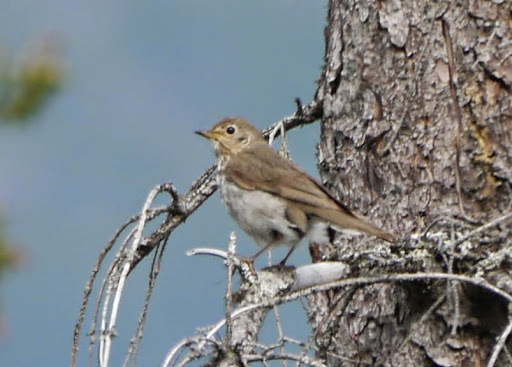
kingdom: Animalia
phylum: Chordata
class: Aves
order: Passeriformes
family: Turdidae
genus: Catharus
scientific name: Catharus ustulatus
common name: Swainson's thrush
